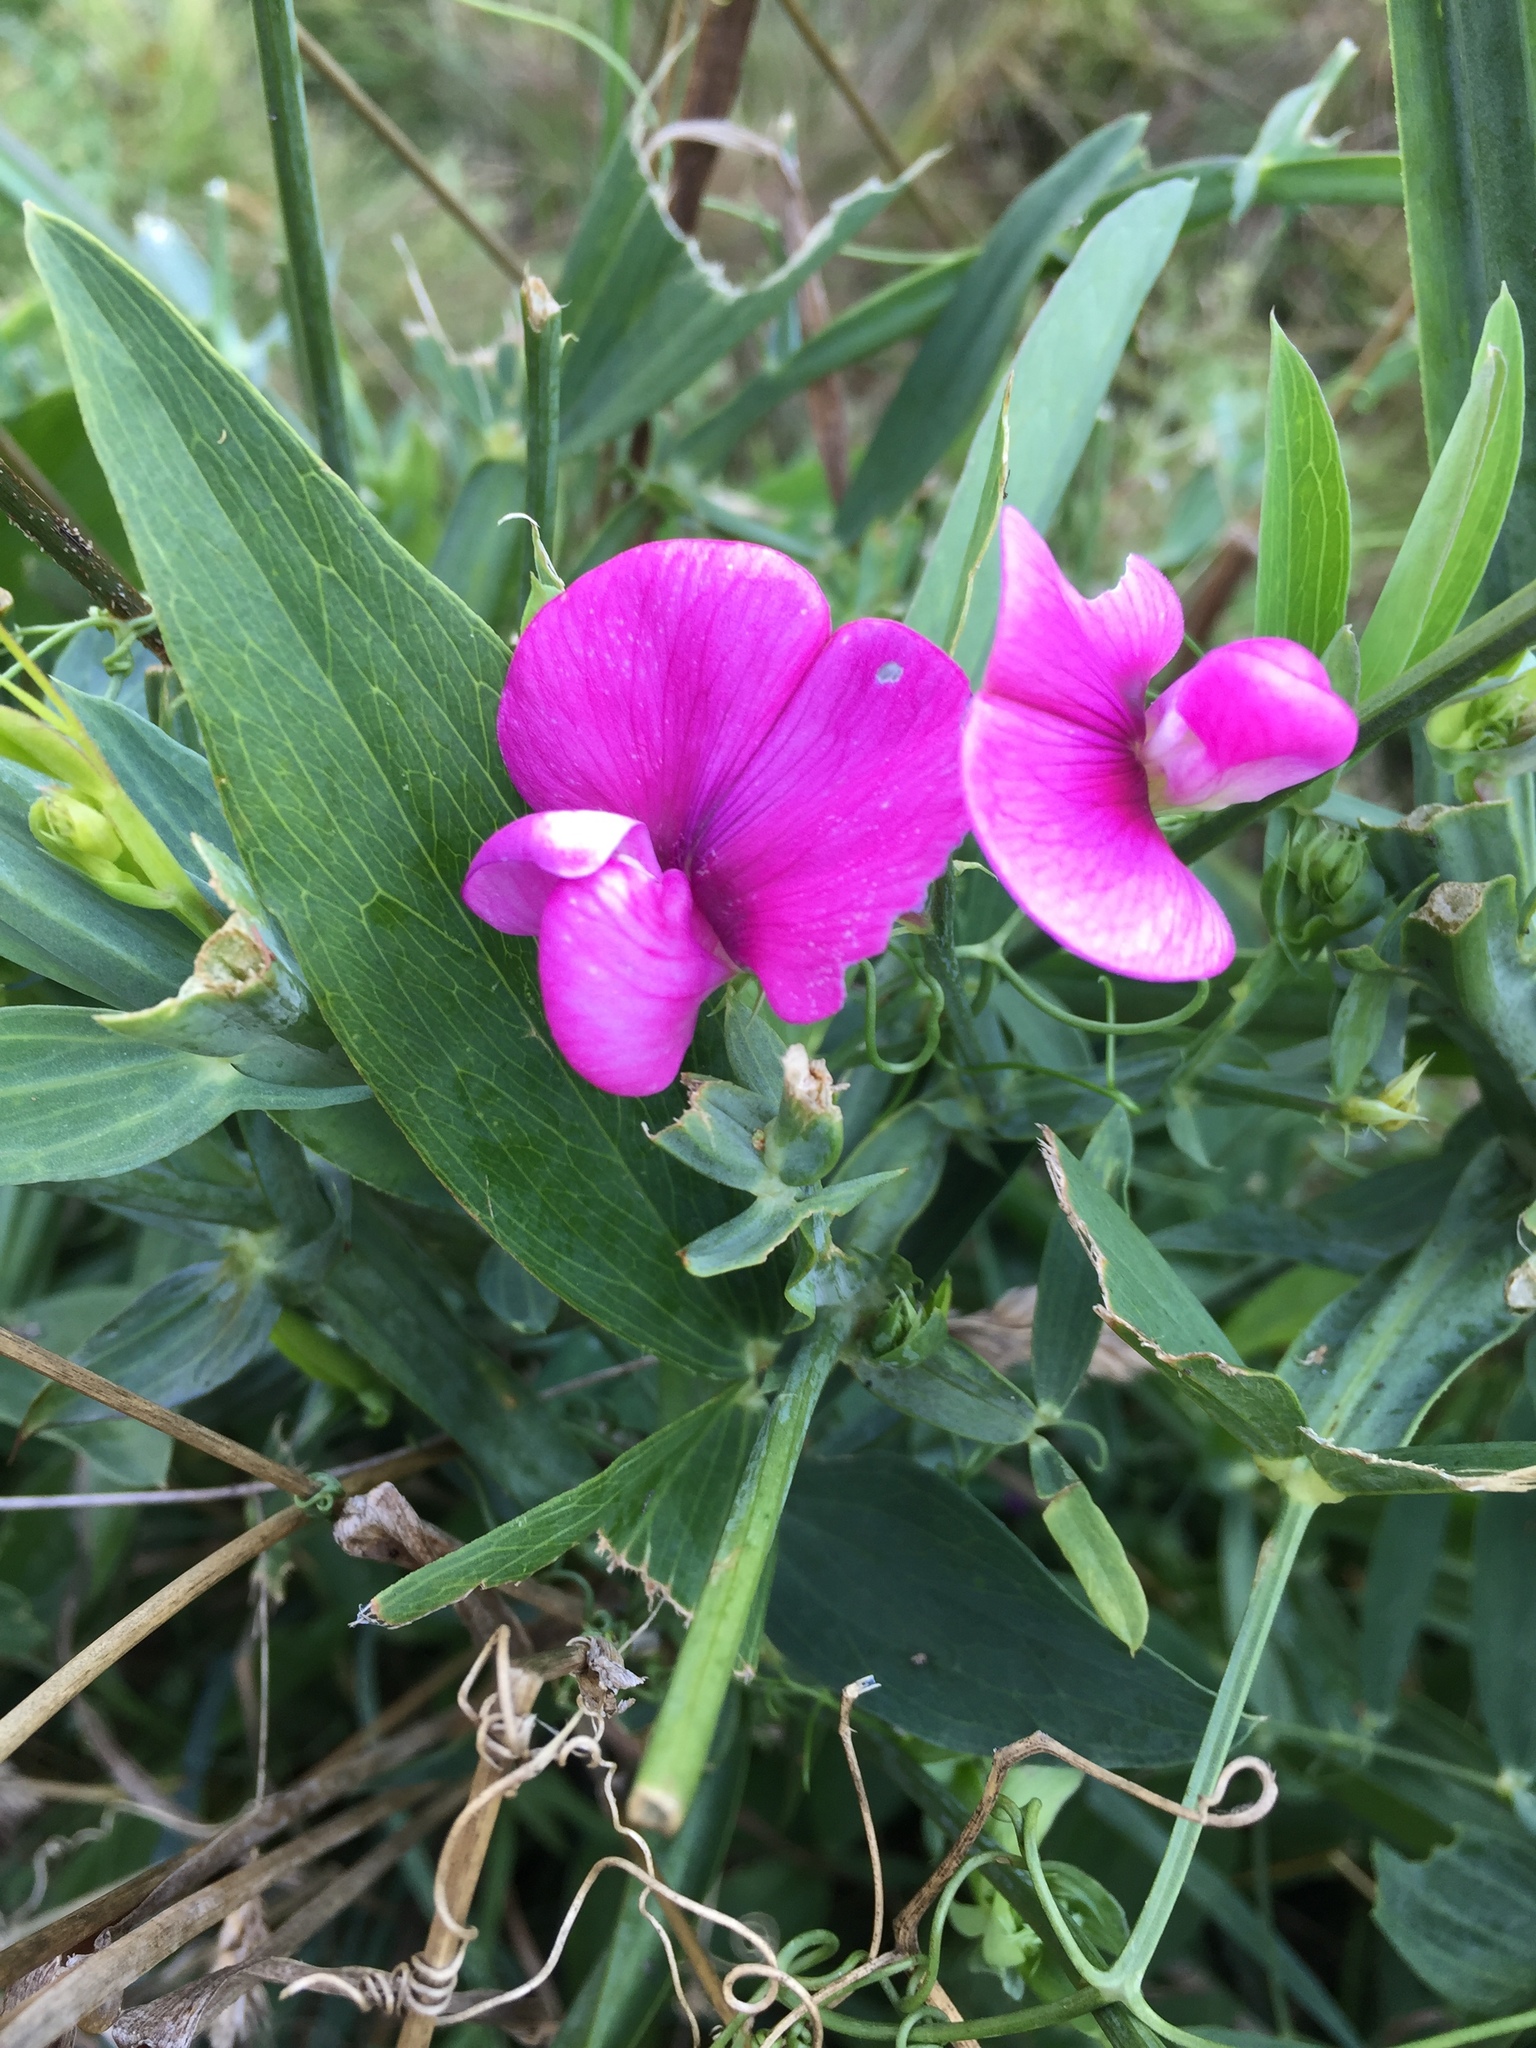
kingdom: Plantae
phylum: Tracheophyta
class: Magnoliopsida
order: Fabales
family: Fabaceae
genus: Lathyrus
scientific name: Lathyrus latifolius
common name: Perennial pea
